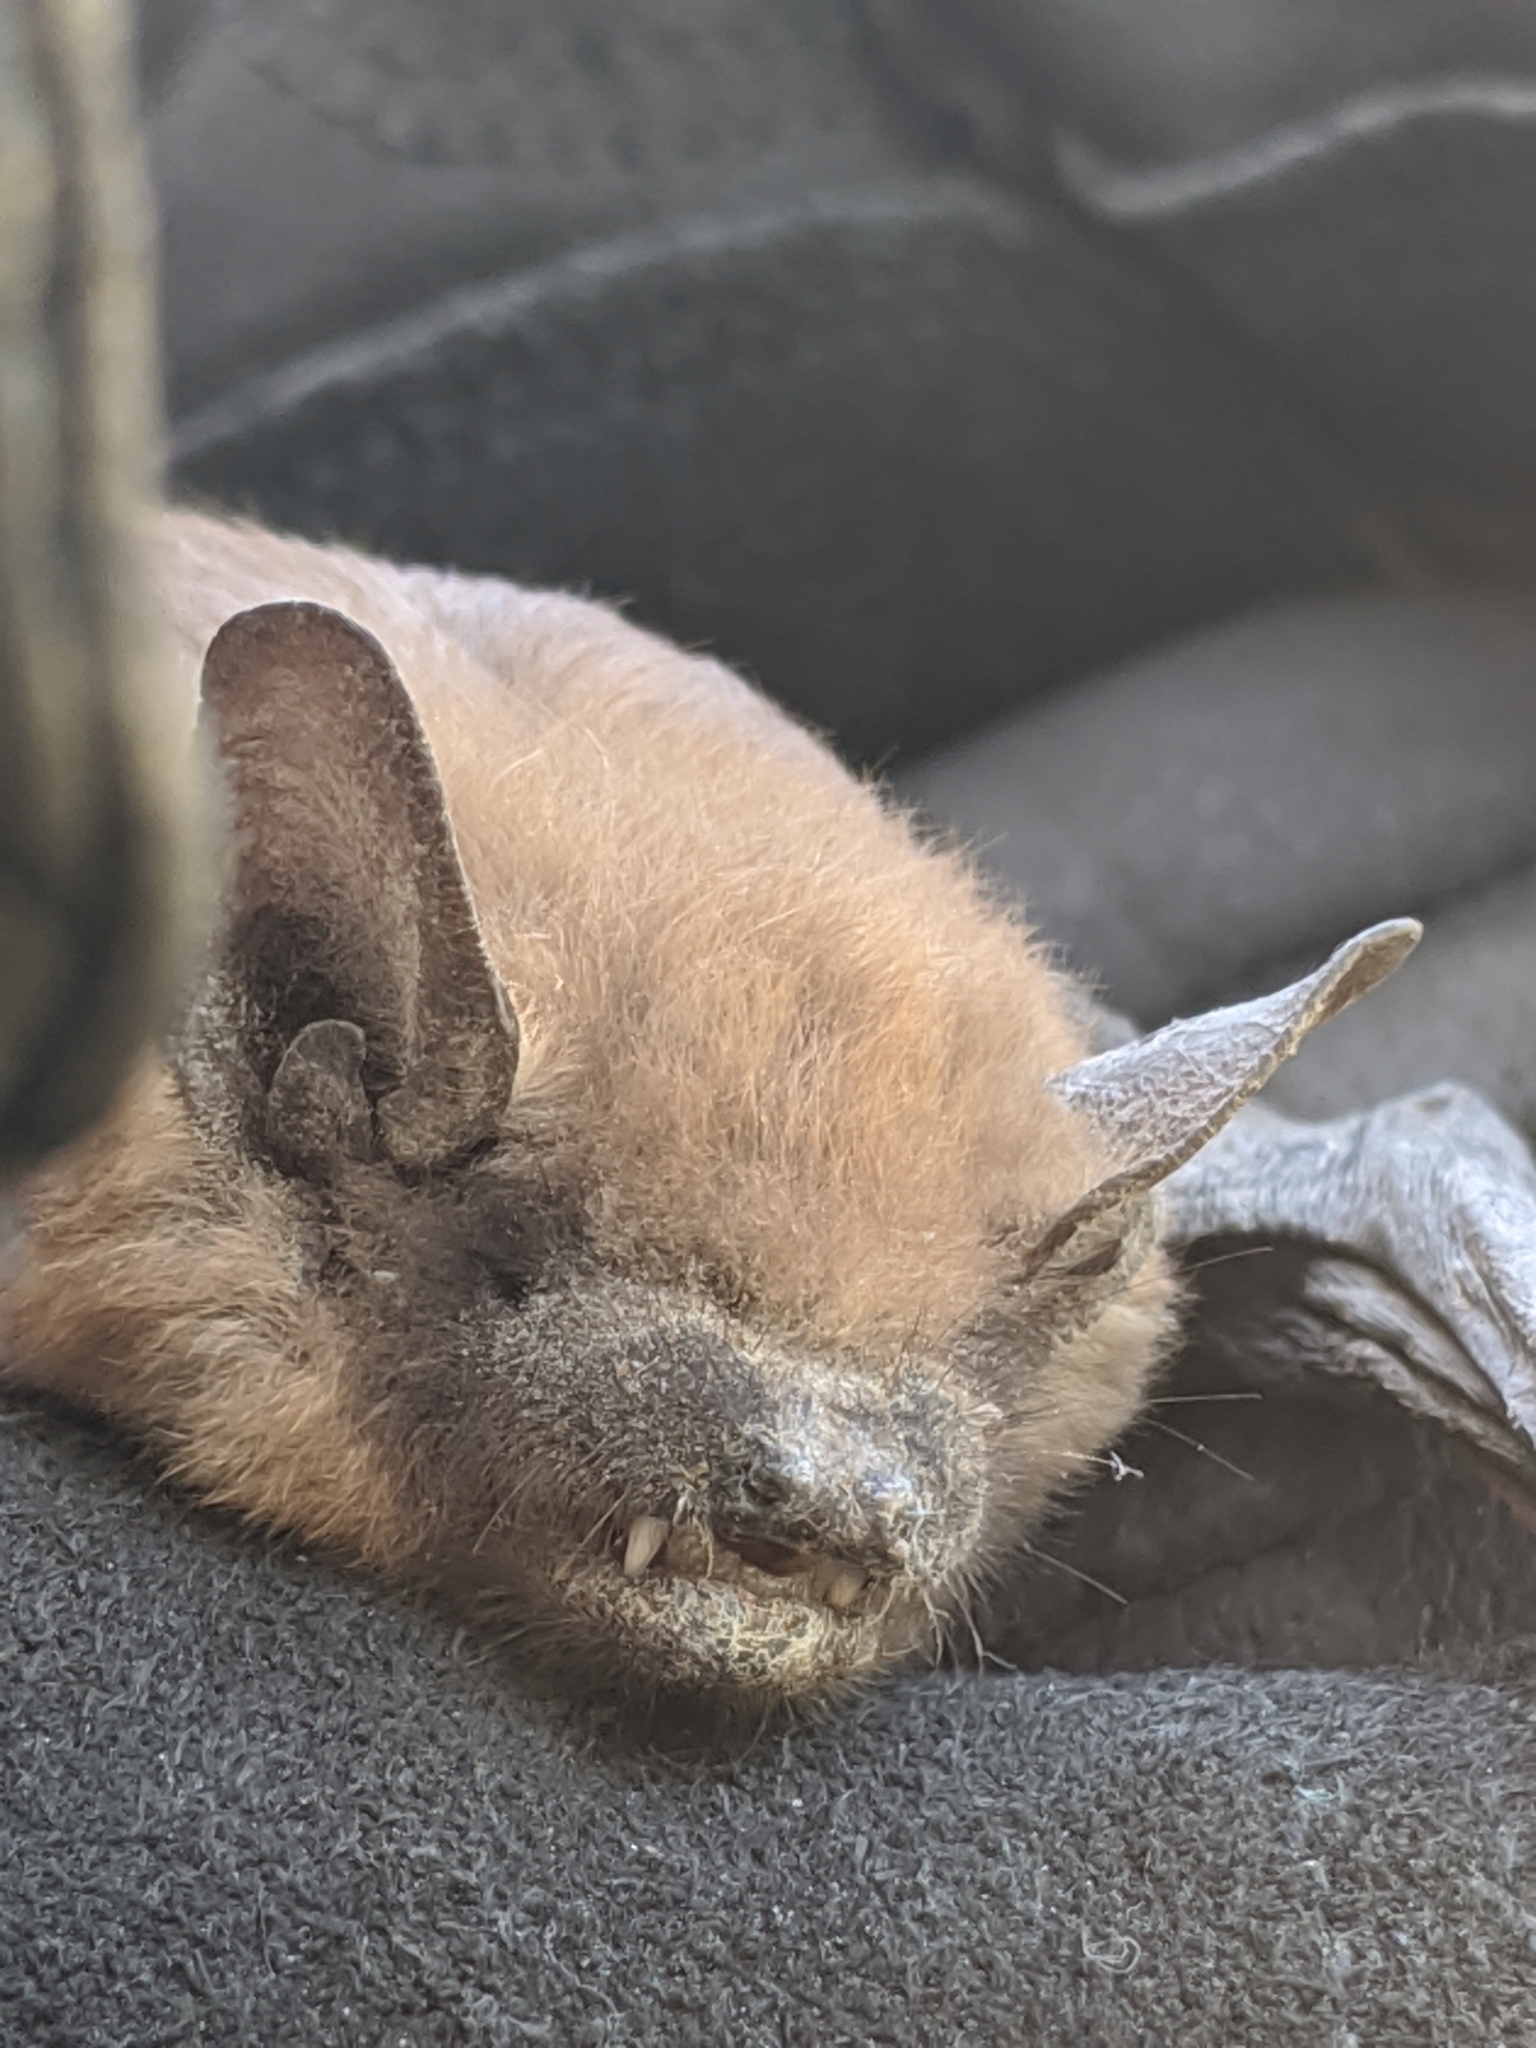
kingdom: Animalia
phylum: Chordata
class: Mammalia
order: Chiroptera
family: Vespertilionidae
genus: Eptesicus
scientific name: Eptesicus fuscus
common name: Big brown bat
